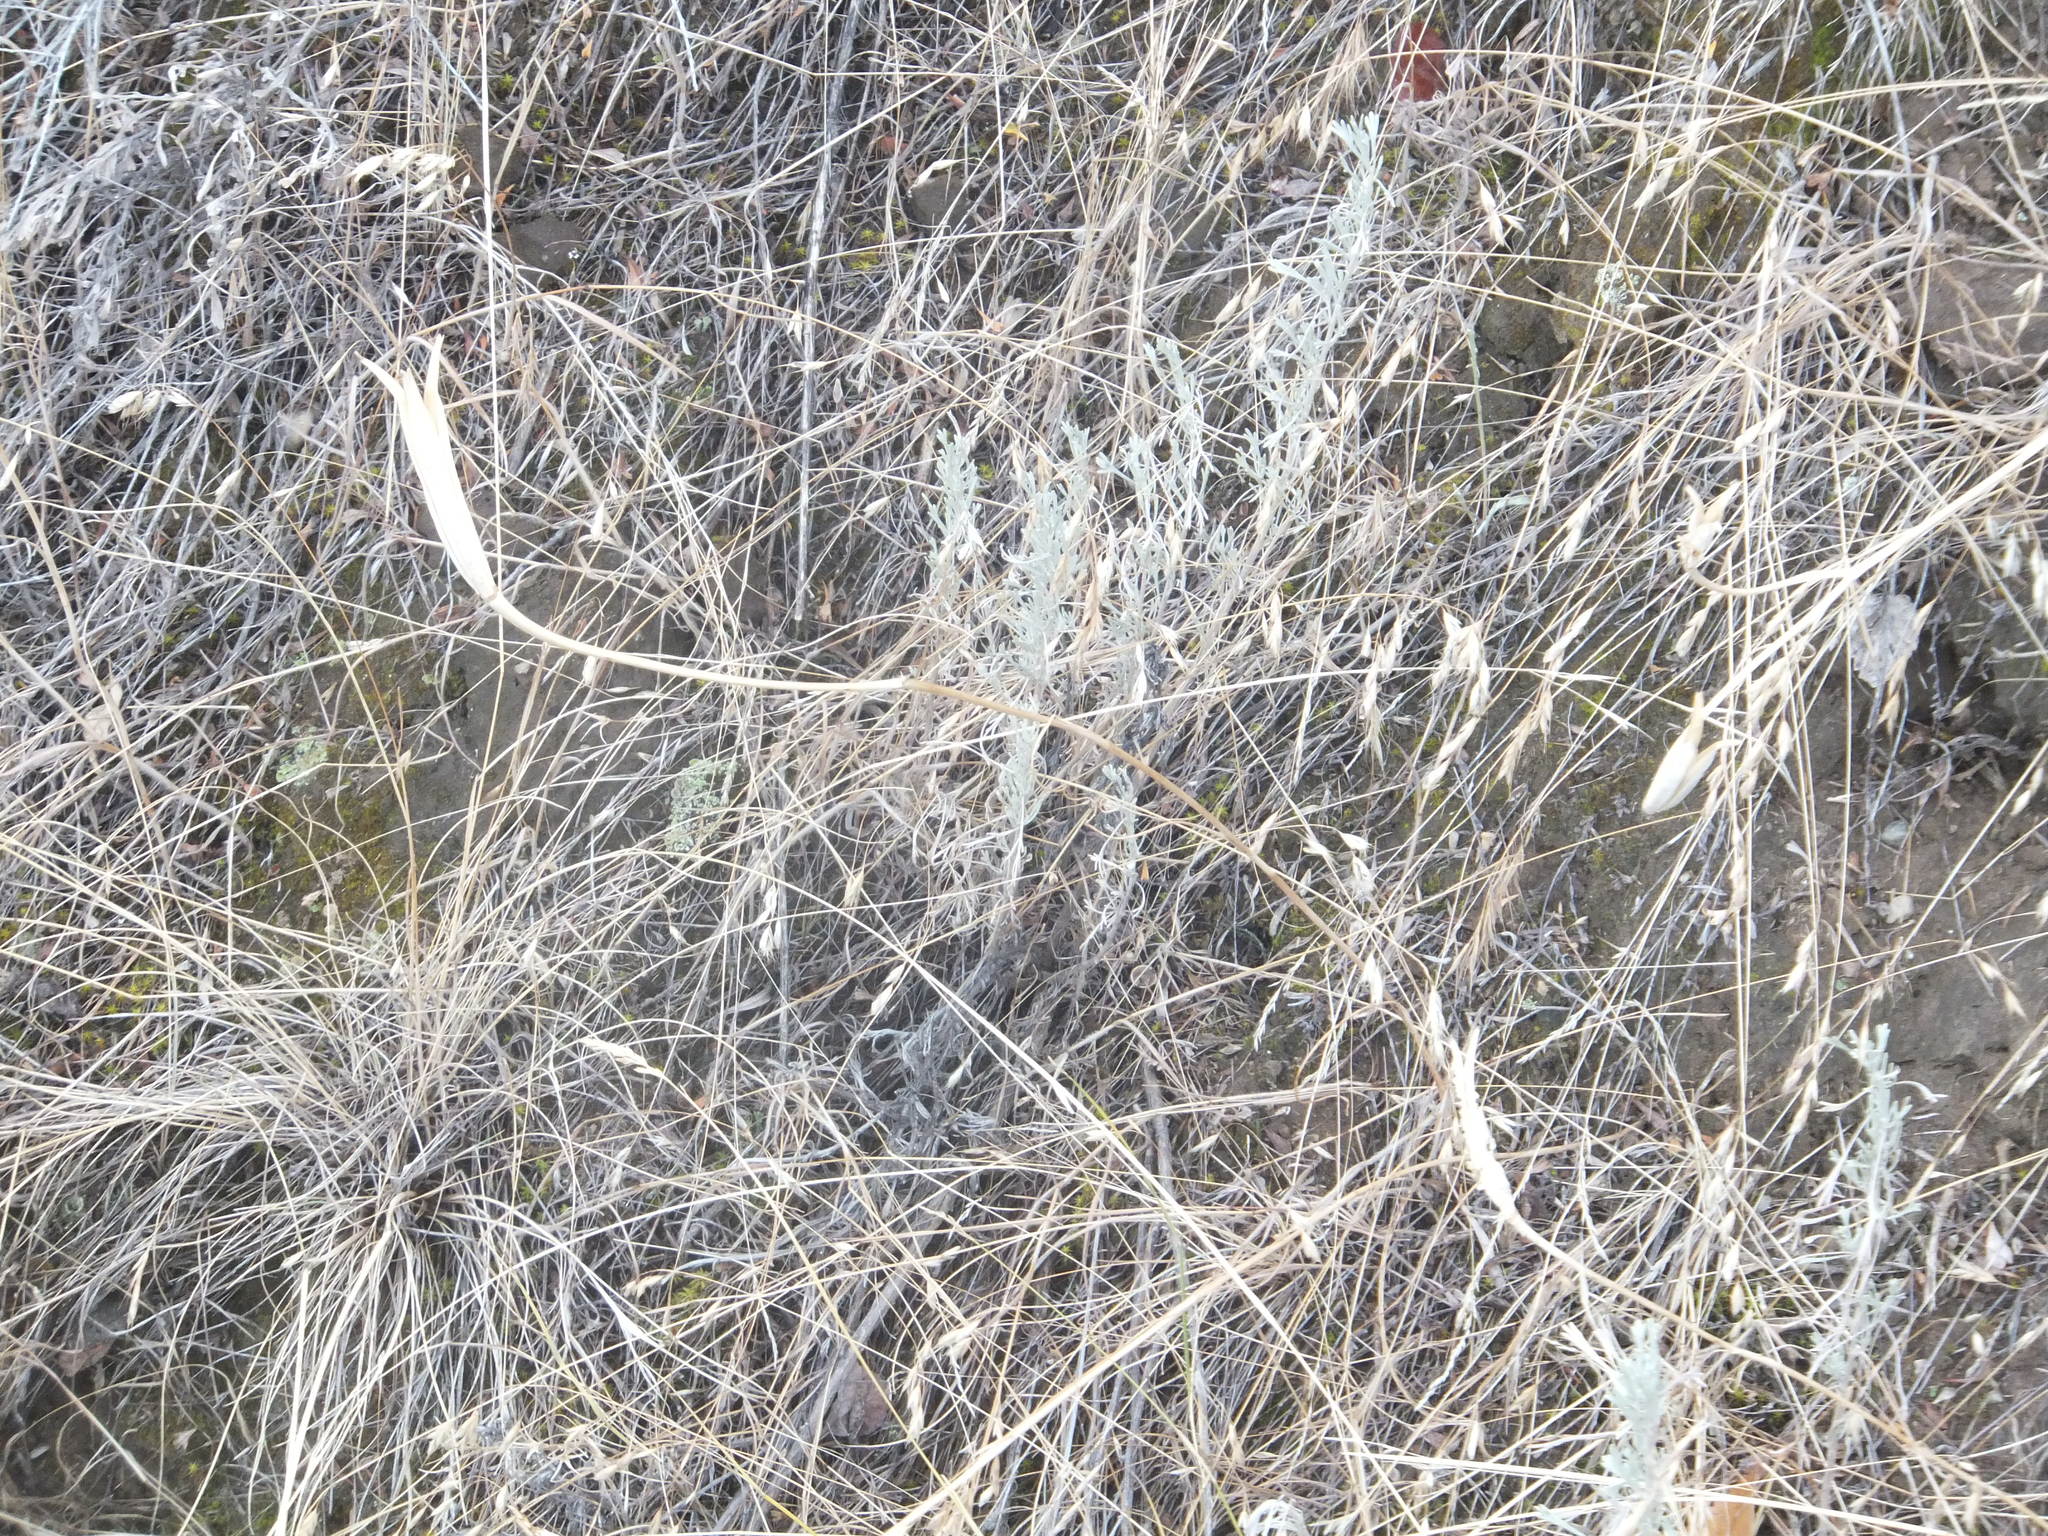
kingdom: Plantae
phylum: Tracheophyta
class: Liliopsida
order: Liliales
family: Liliaceae
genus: Calochortus
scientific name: Calochortus macrocarpus
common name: Green-band mariposa lily
